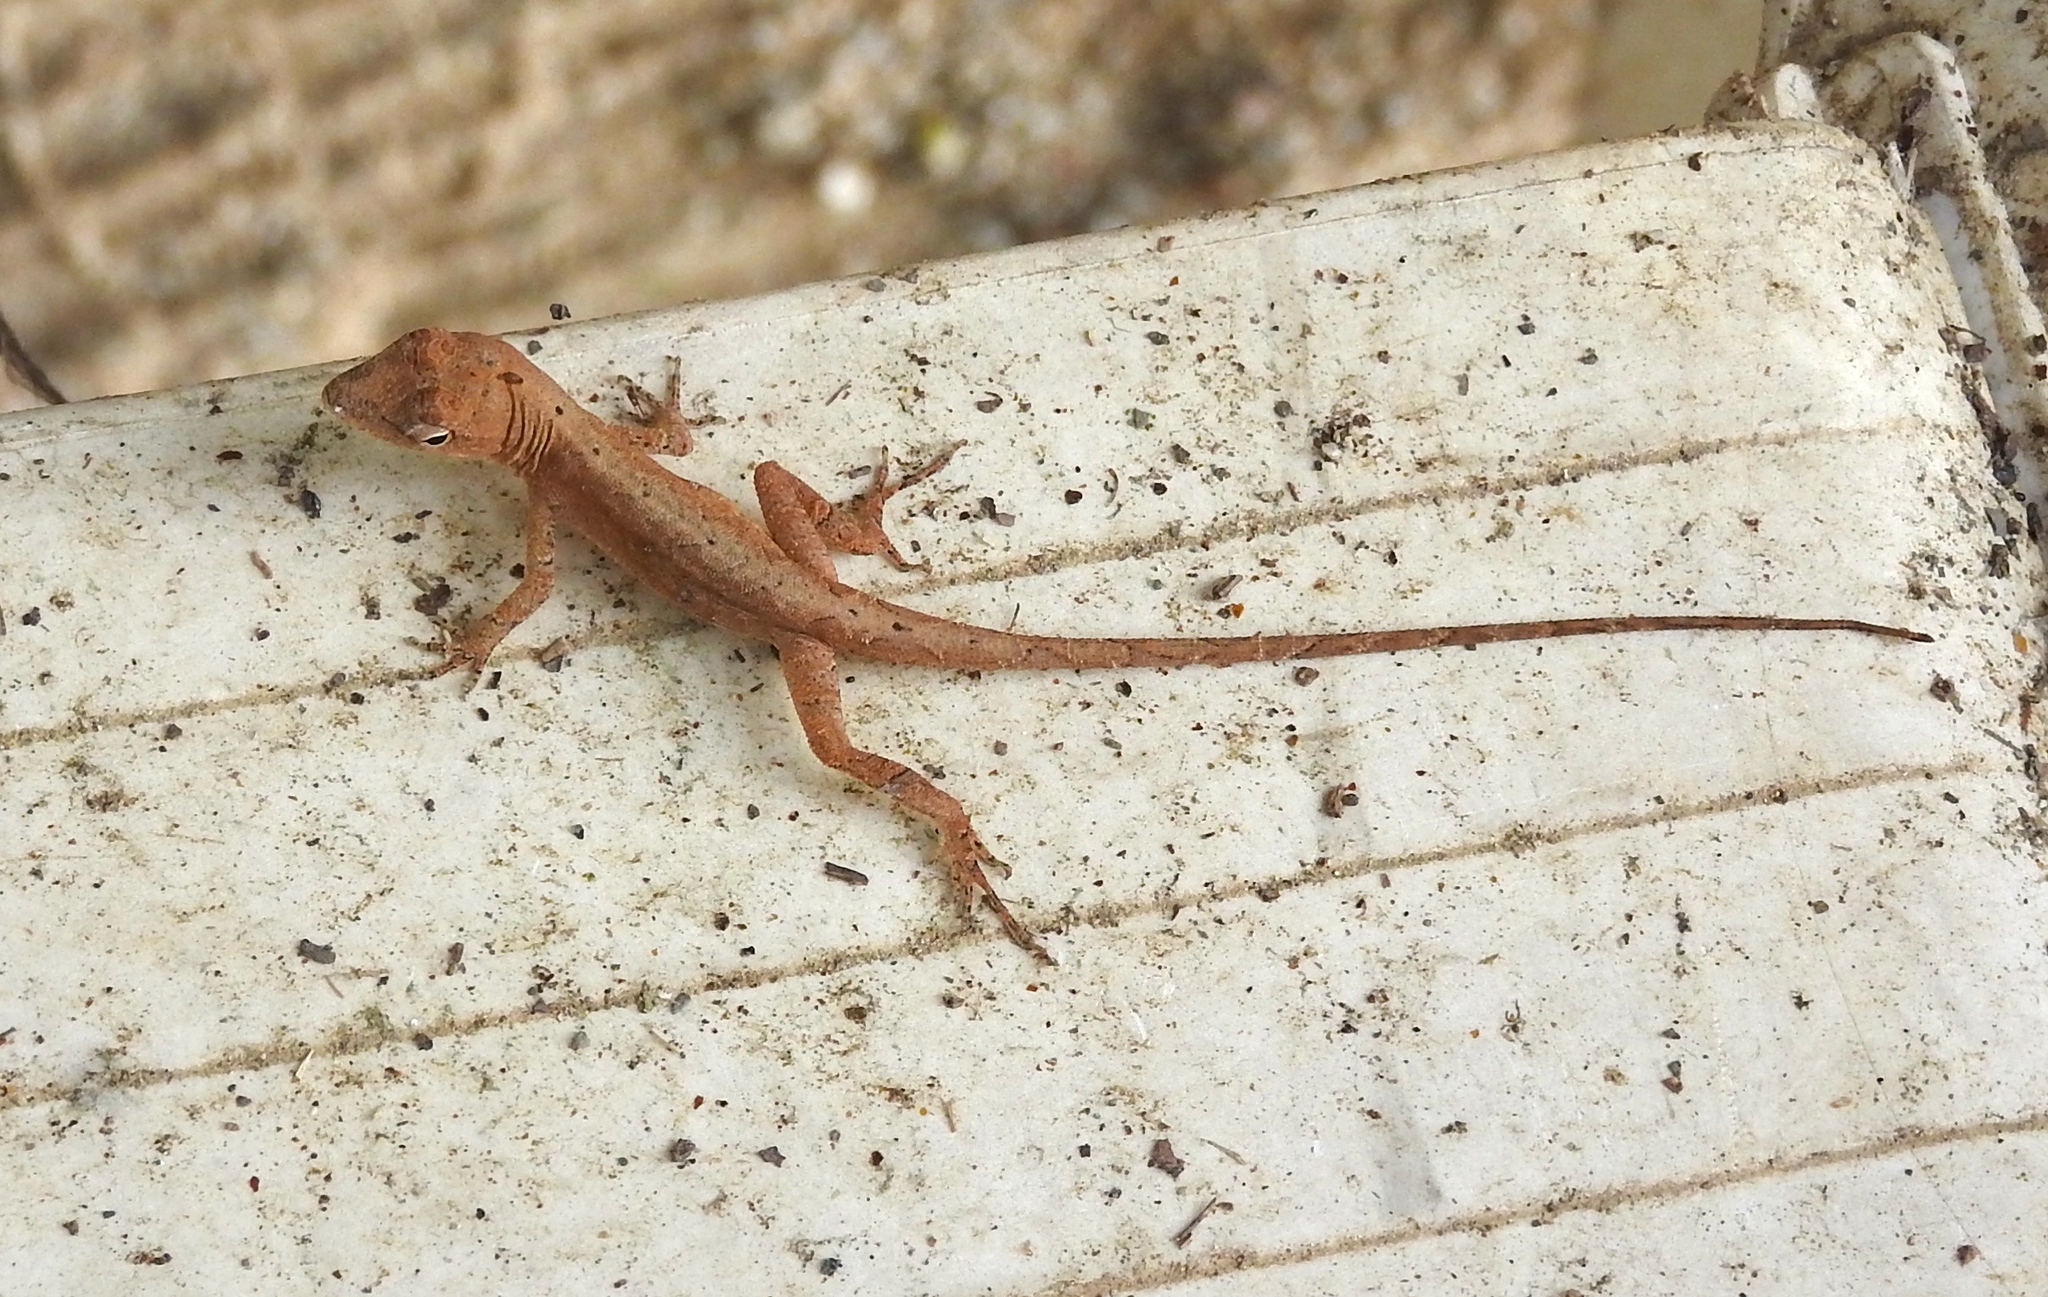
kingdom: Animalia
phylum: Chordata
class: Squamata
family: Dactyloidae
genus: Anolis
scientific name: Anolis nebulosus
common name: Clouded anole
